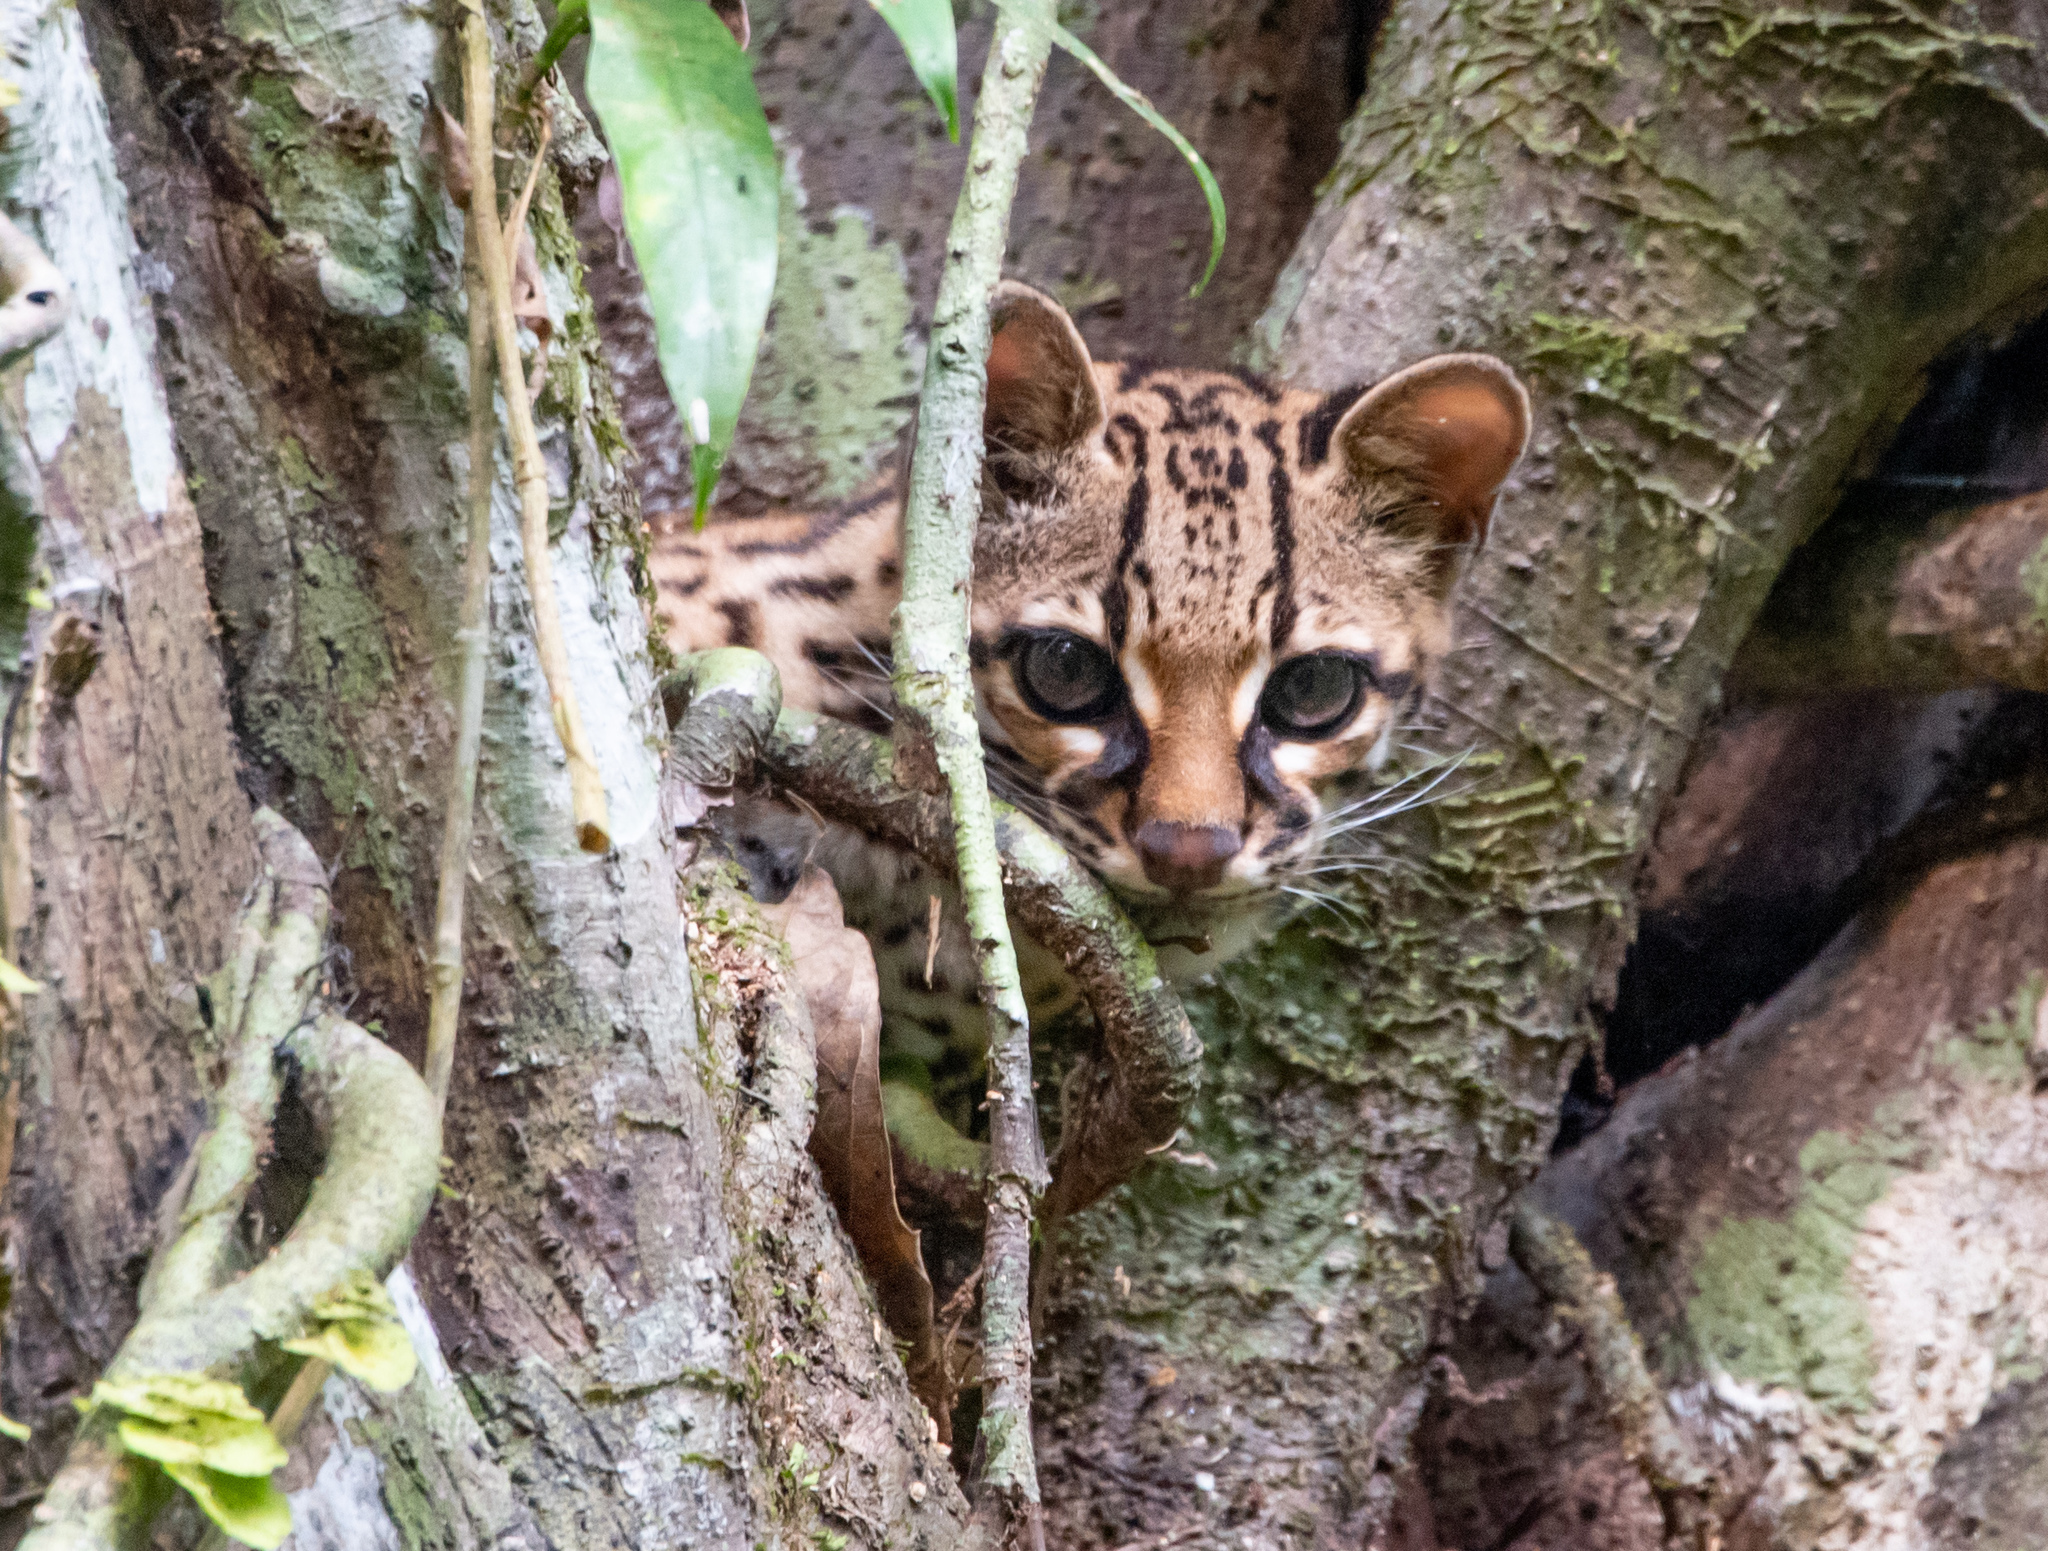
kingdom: Animalia
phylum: Chordata
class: Mammalia
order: Carnivora
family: Felidae
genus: Leopardus
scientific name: Leopardus wiedii
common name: Margay
